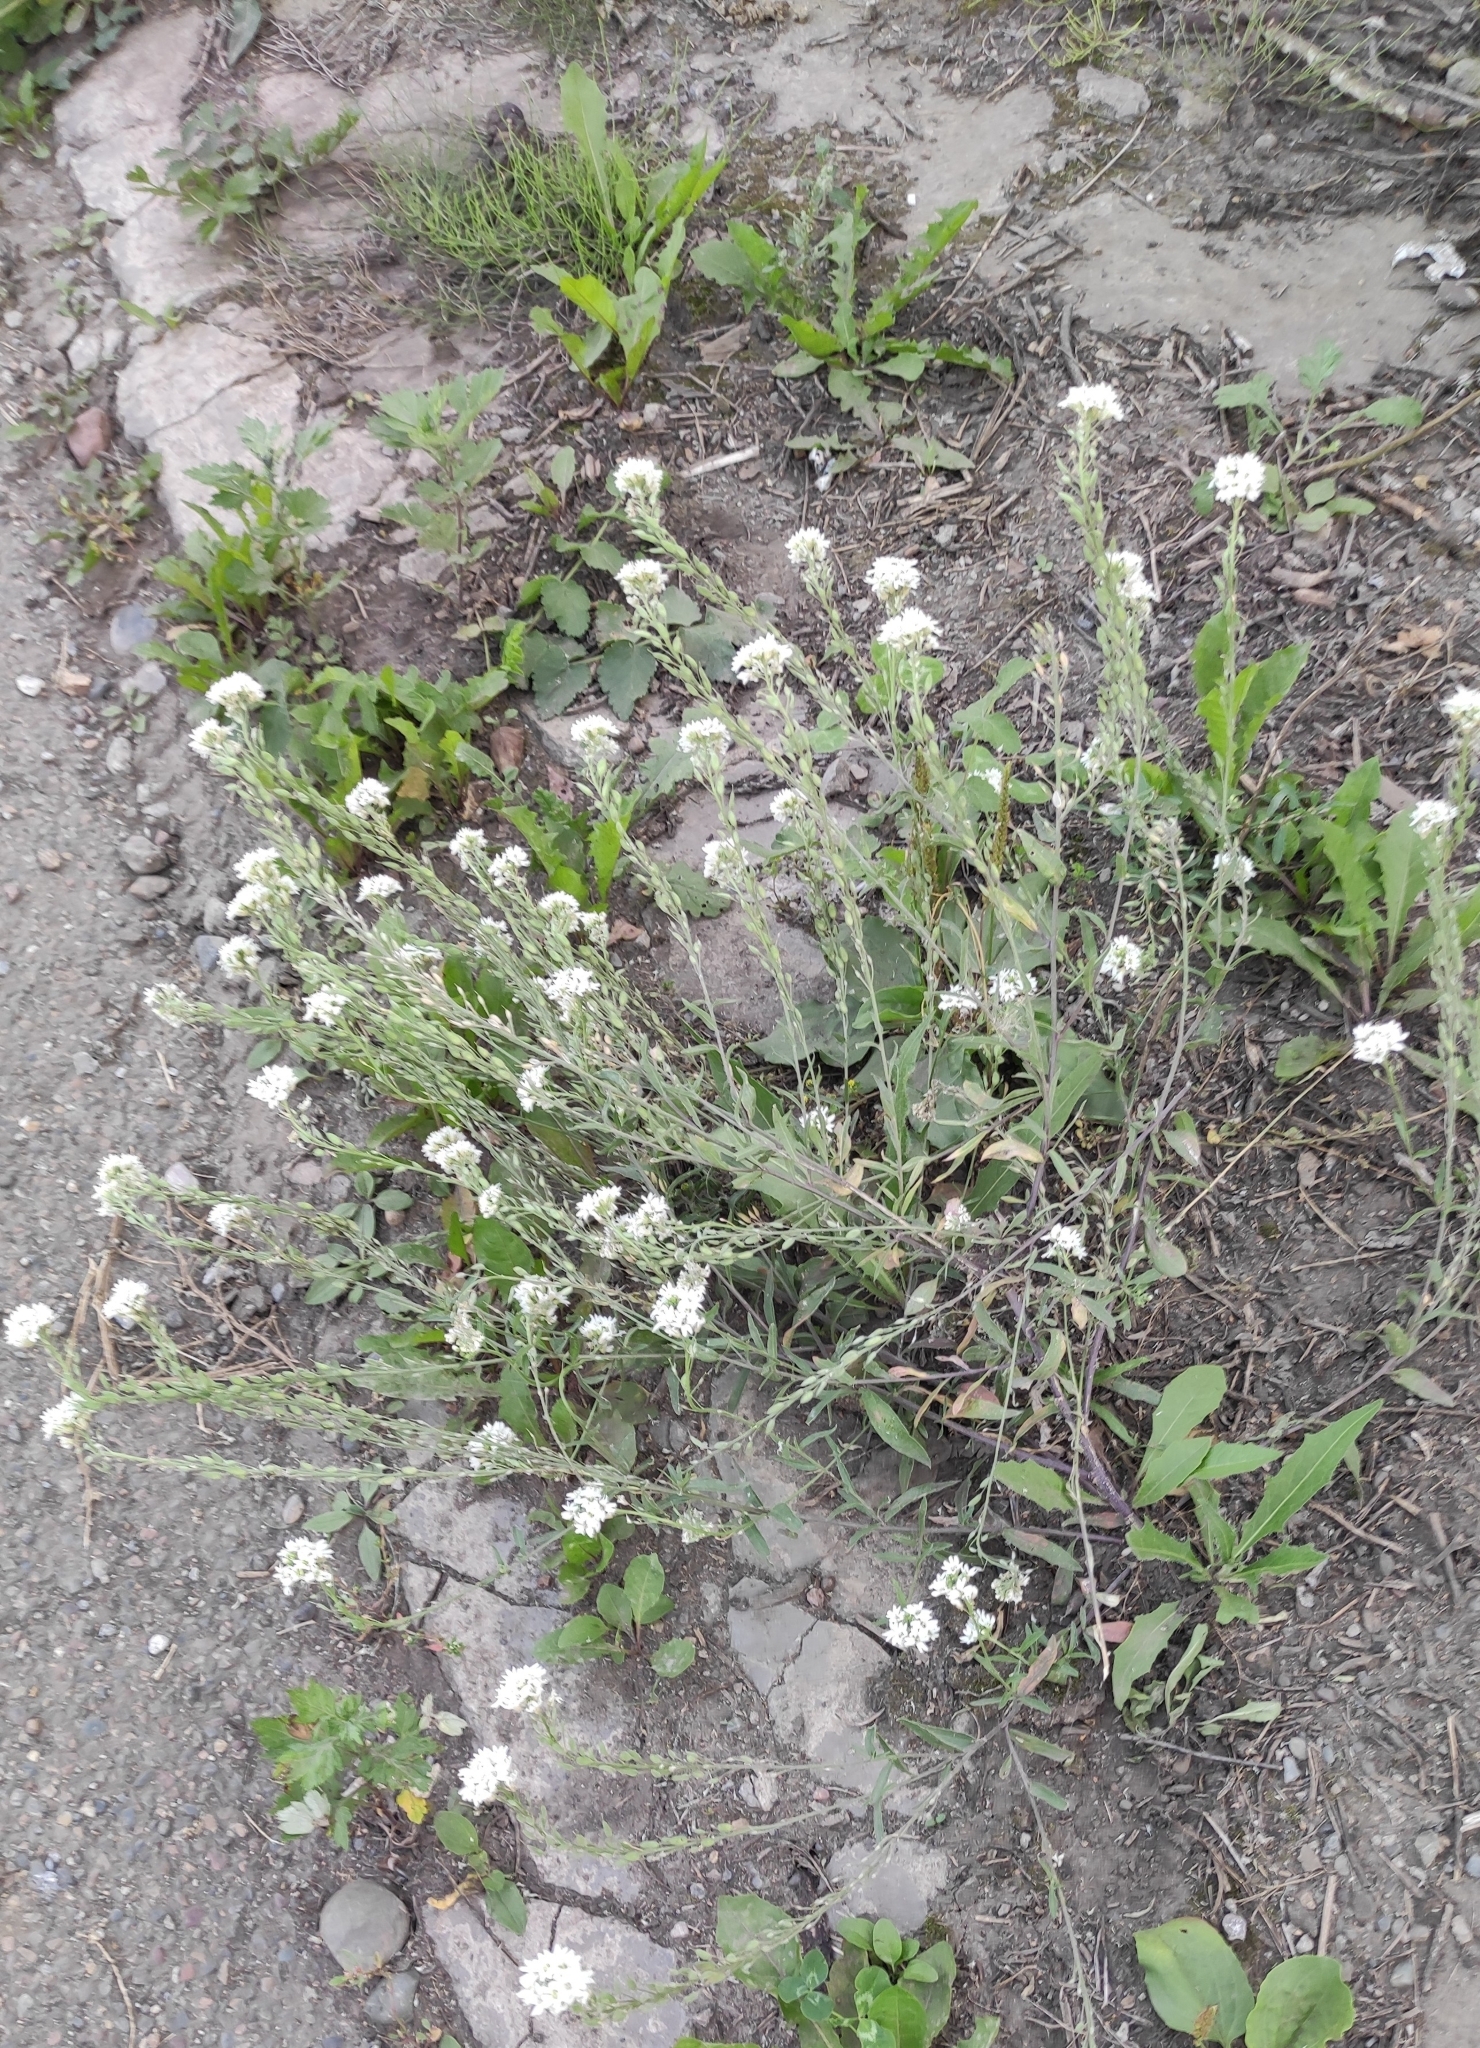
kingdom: Plantae
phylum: Tracheophyta
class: Magnoliopsida
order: Brassicales
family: Brassicaceae
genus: Berteroa
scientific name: Berteroa incana
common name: Hoary alison
